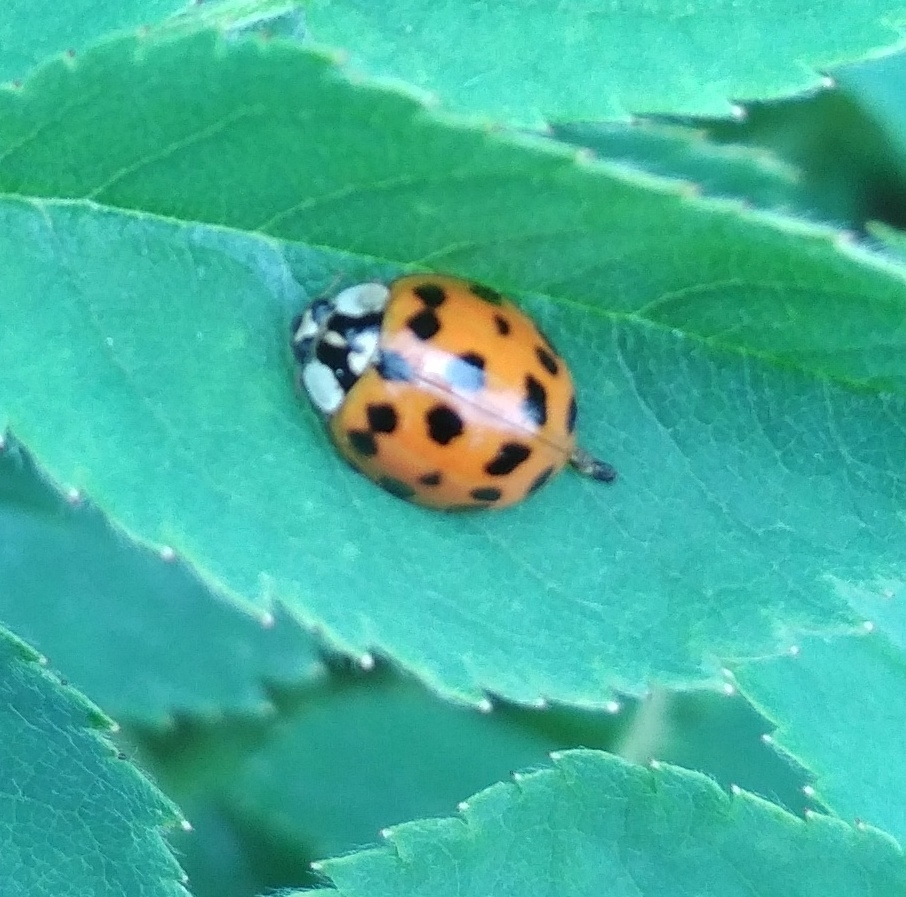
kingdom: Animalia
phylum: Arthropoda
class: Insecta
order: Coleoptera
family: Coccinellidae
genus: Harmonia
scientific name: Harmonia axyridis
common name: Harlequin ladybird
